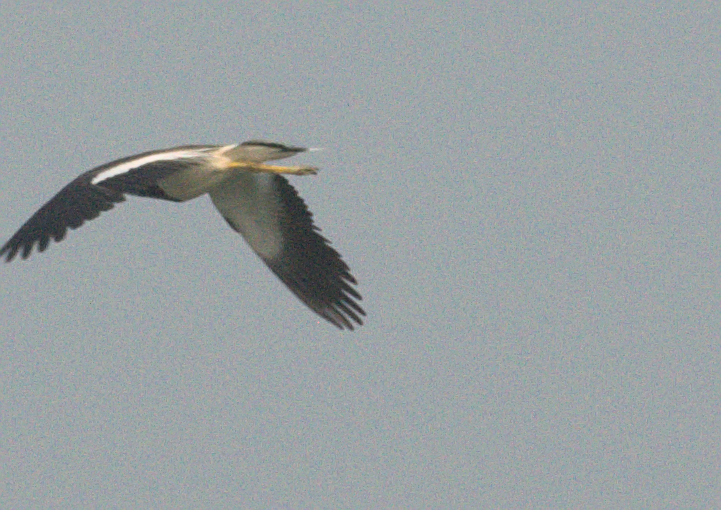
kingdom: Animalia
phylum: Chordata
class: Aves
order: Charadriiformes
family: Charadriidae
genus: Vanellus
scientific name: Vanellus indicus
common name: Red-wattled lapwing
